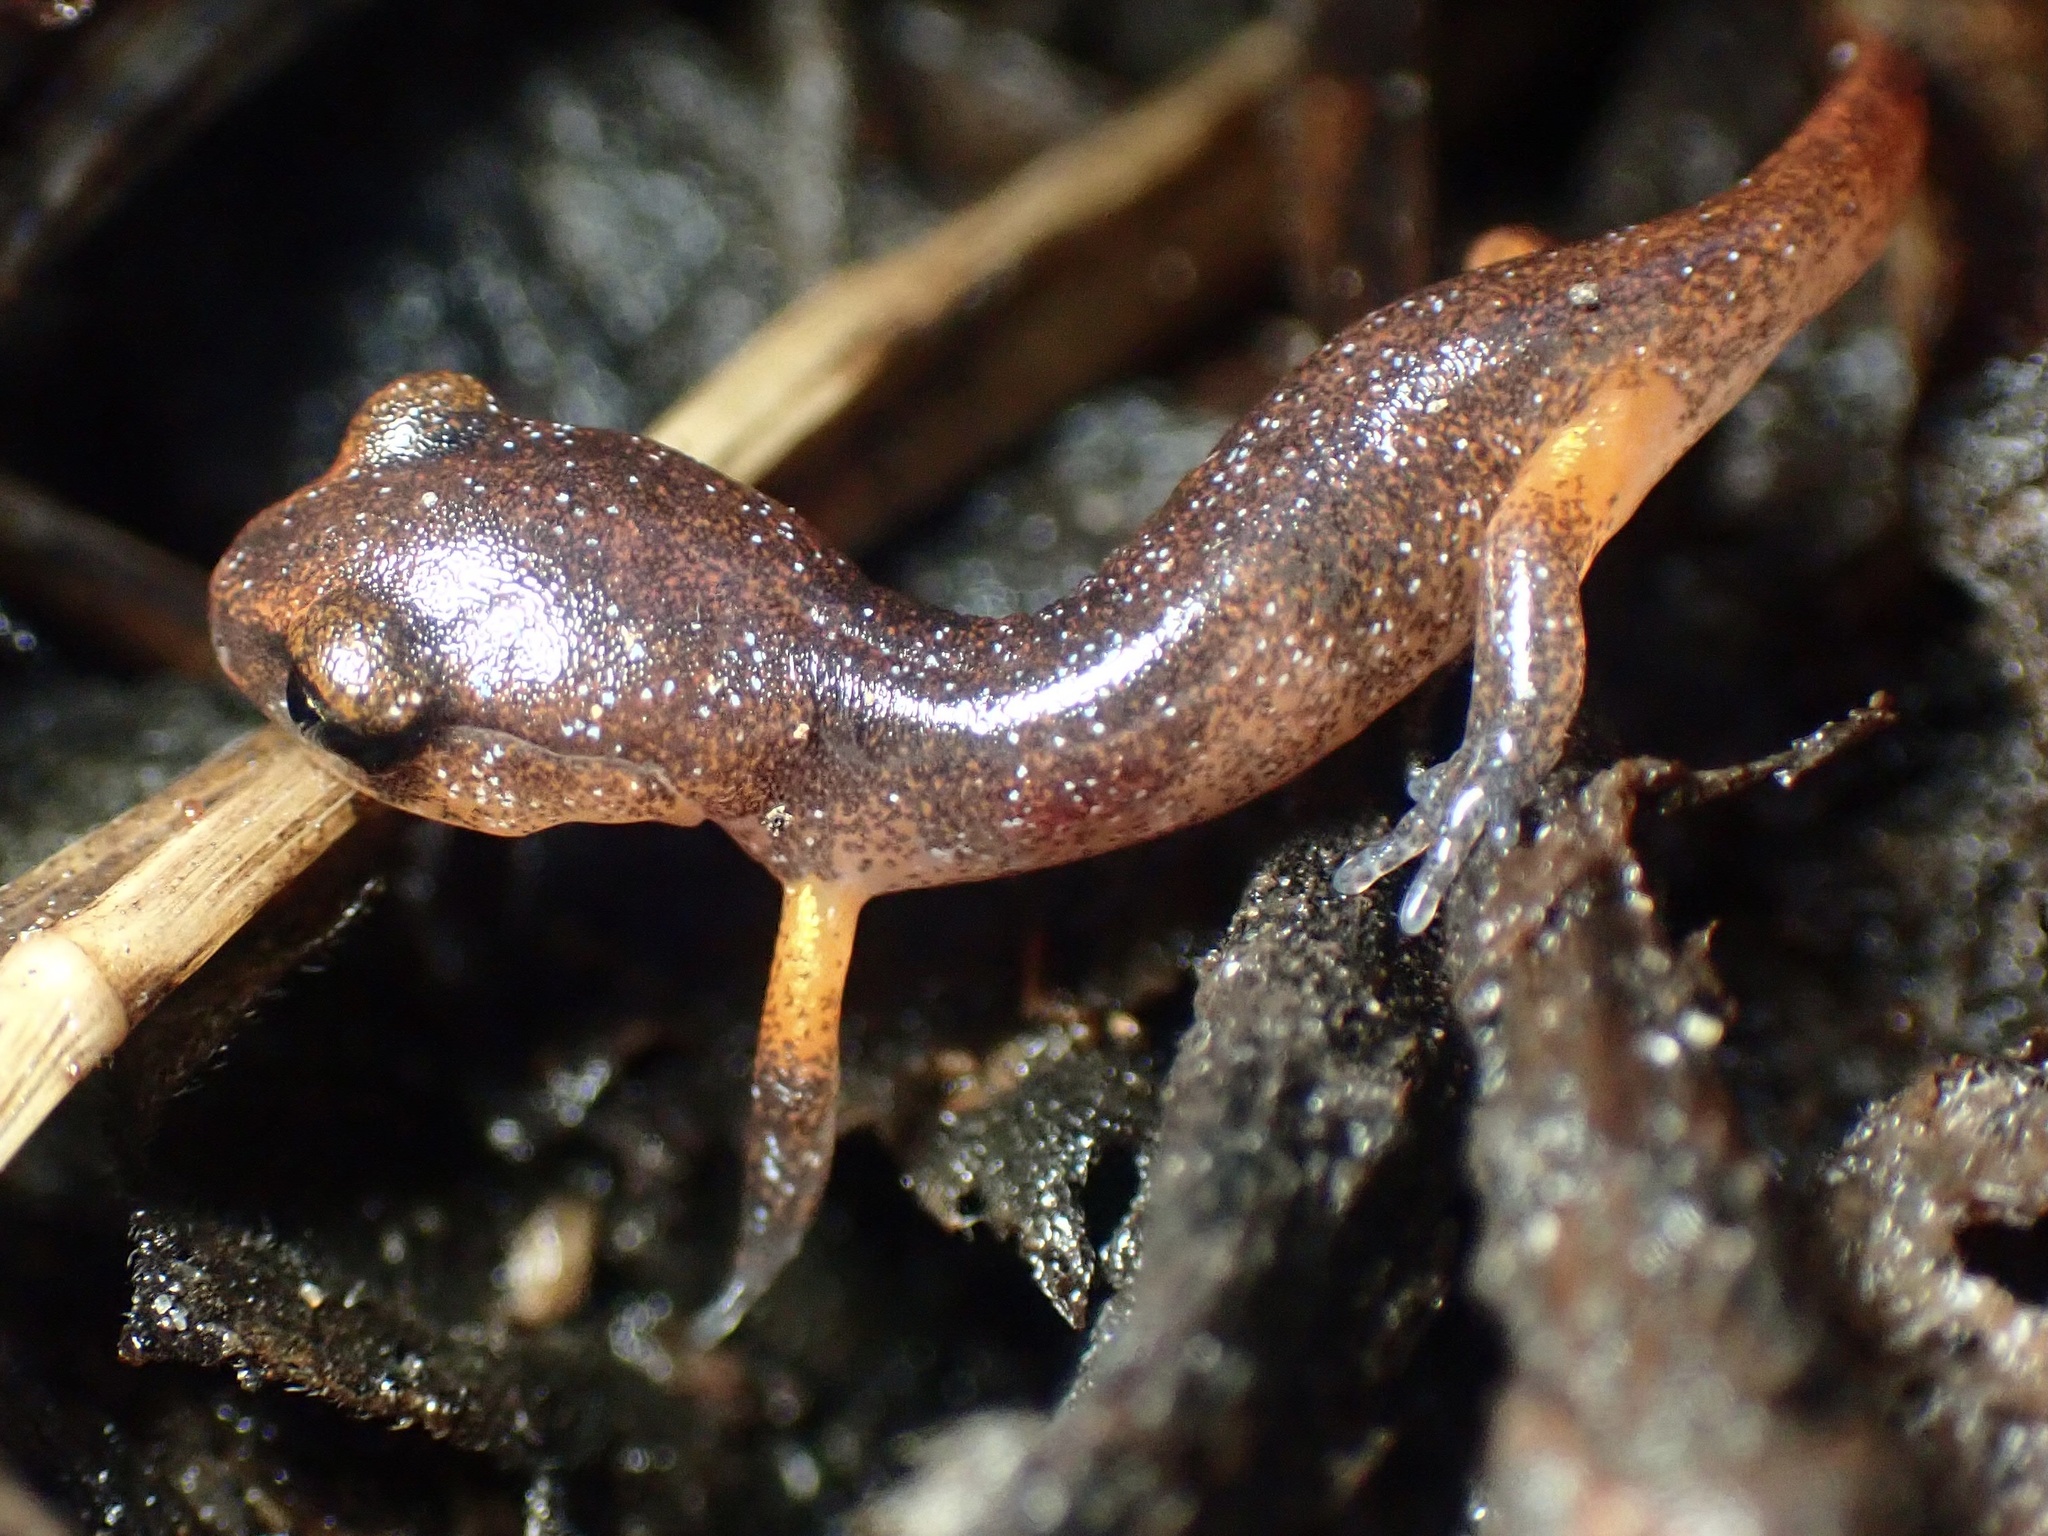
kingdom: Animalia
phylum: Chordata
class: Amphibia
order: Caudata
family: Plethodontidae
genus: Ensatina
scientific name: Ensatina eschscholtzii
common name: Ensatina
